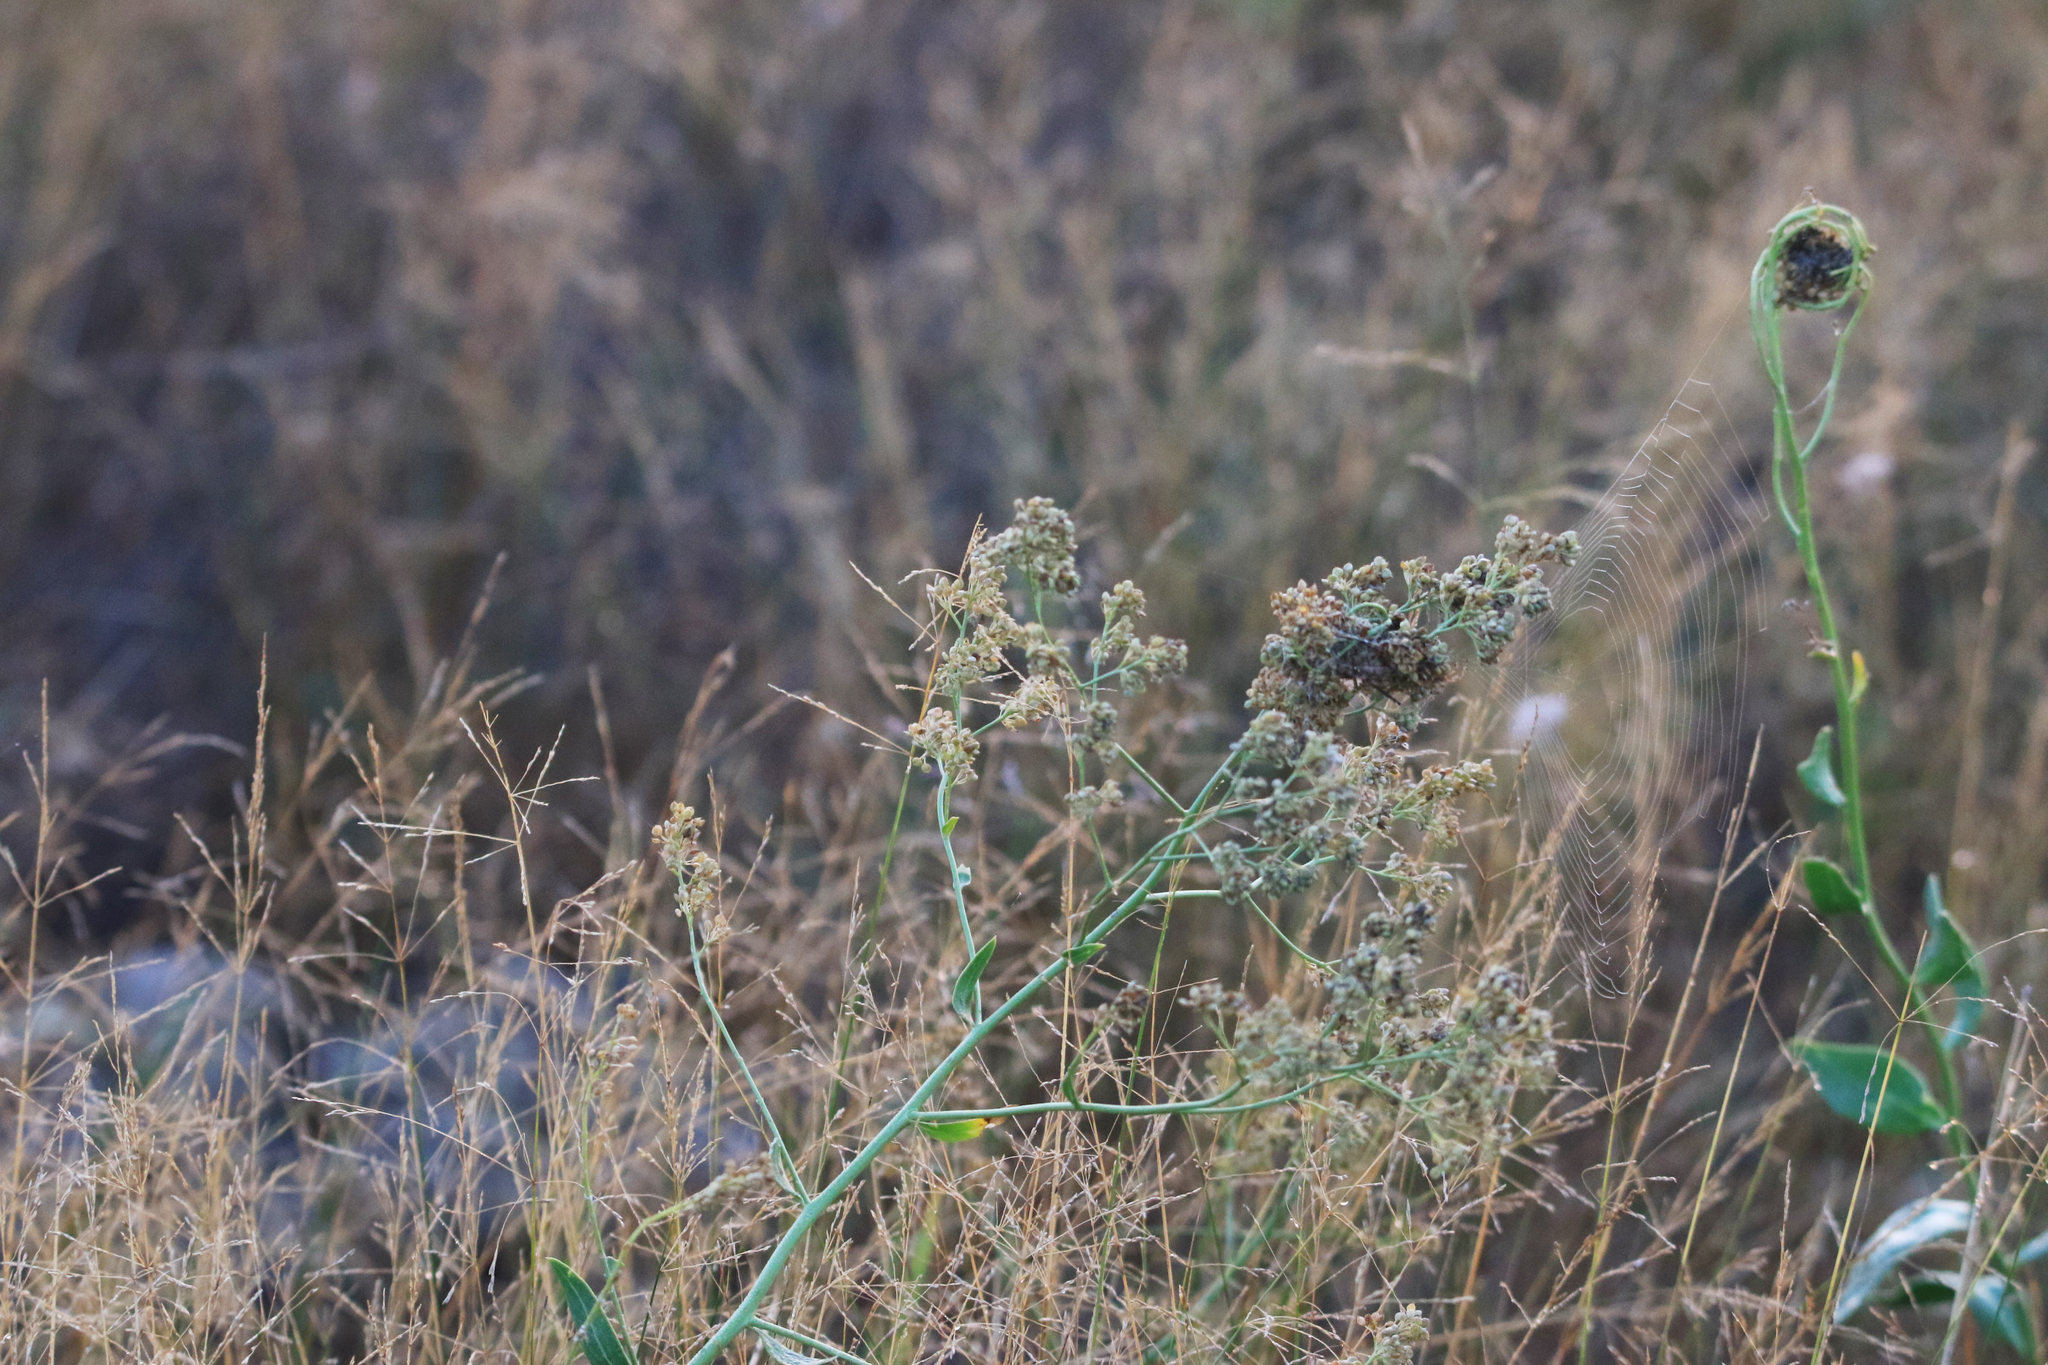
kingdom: Plantae
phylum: Tracheophyta
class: Magnoliopsida
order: Brassicales
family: Brassicaceae
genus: Lepidium
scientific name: Lepidium latifolium
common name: Dittander
